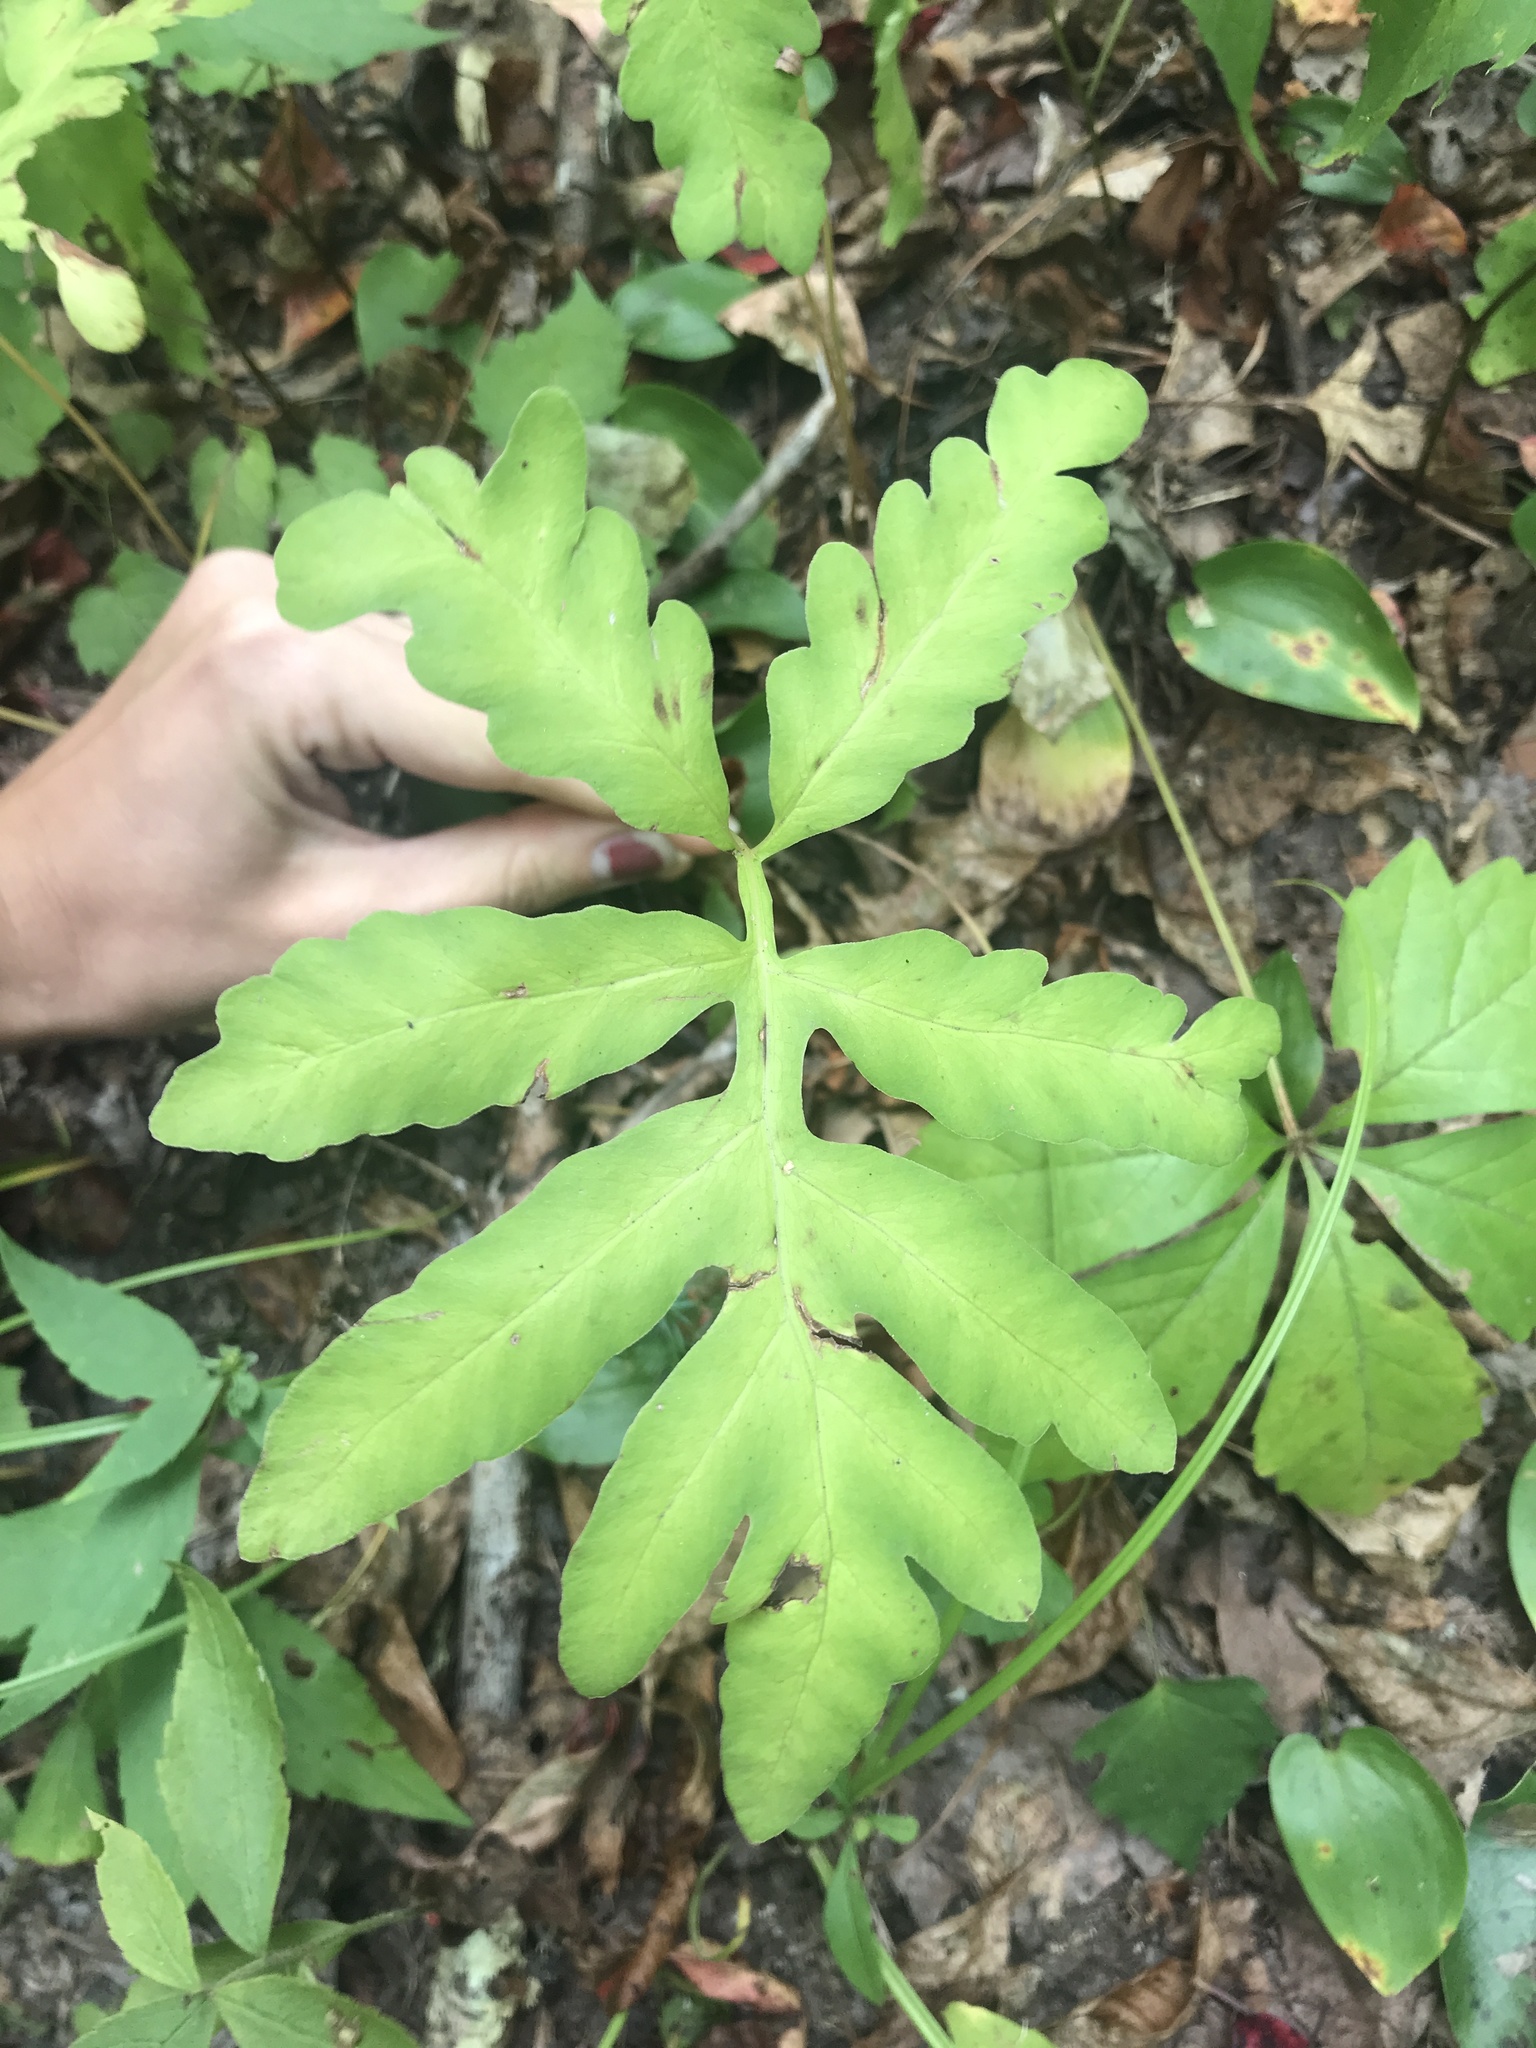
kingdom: Plantae
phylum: Tracheophyta
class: Polypodiopsida
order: Polypodiales
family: Onocleaceae
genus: Onoclea
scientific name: Onoclea sensibilis
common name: Sensitive fern
